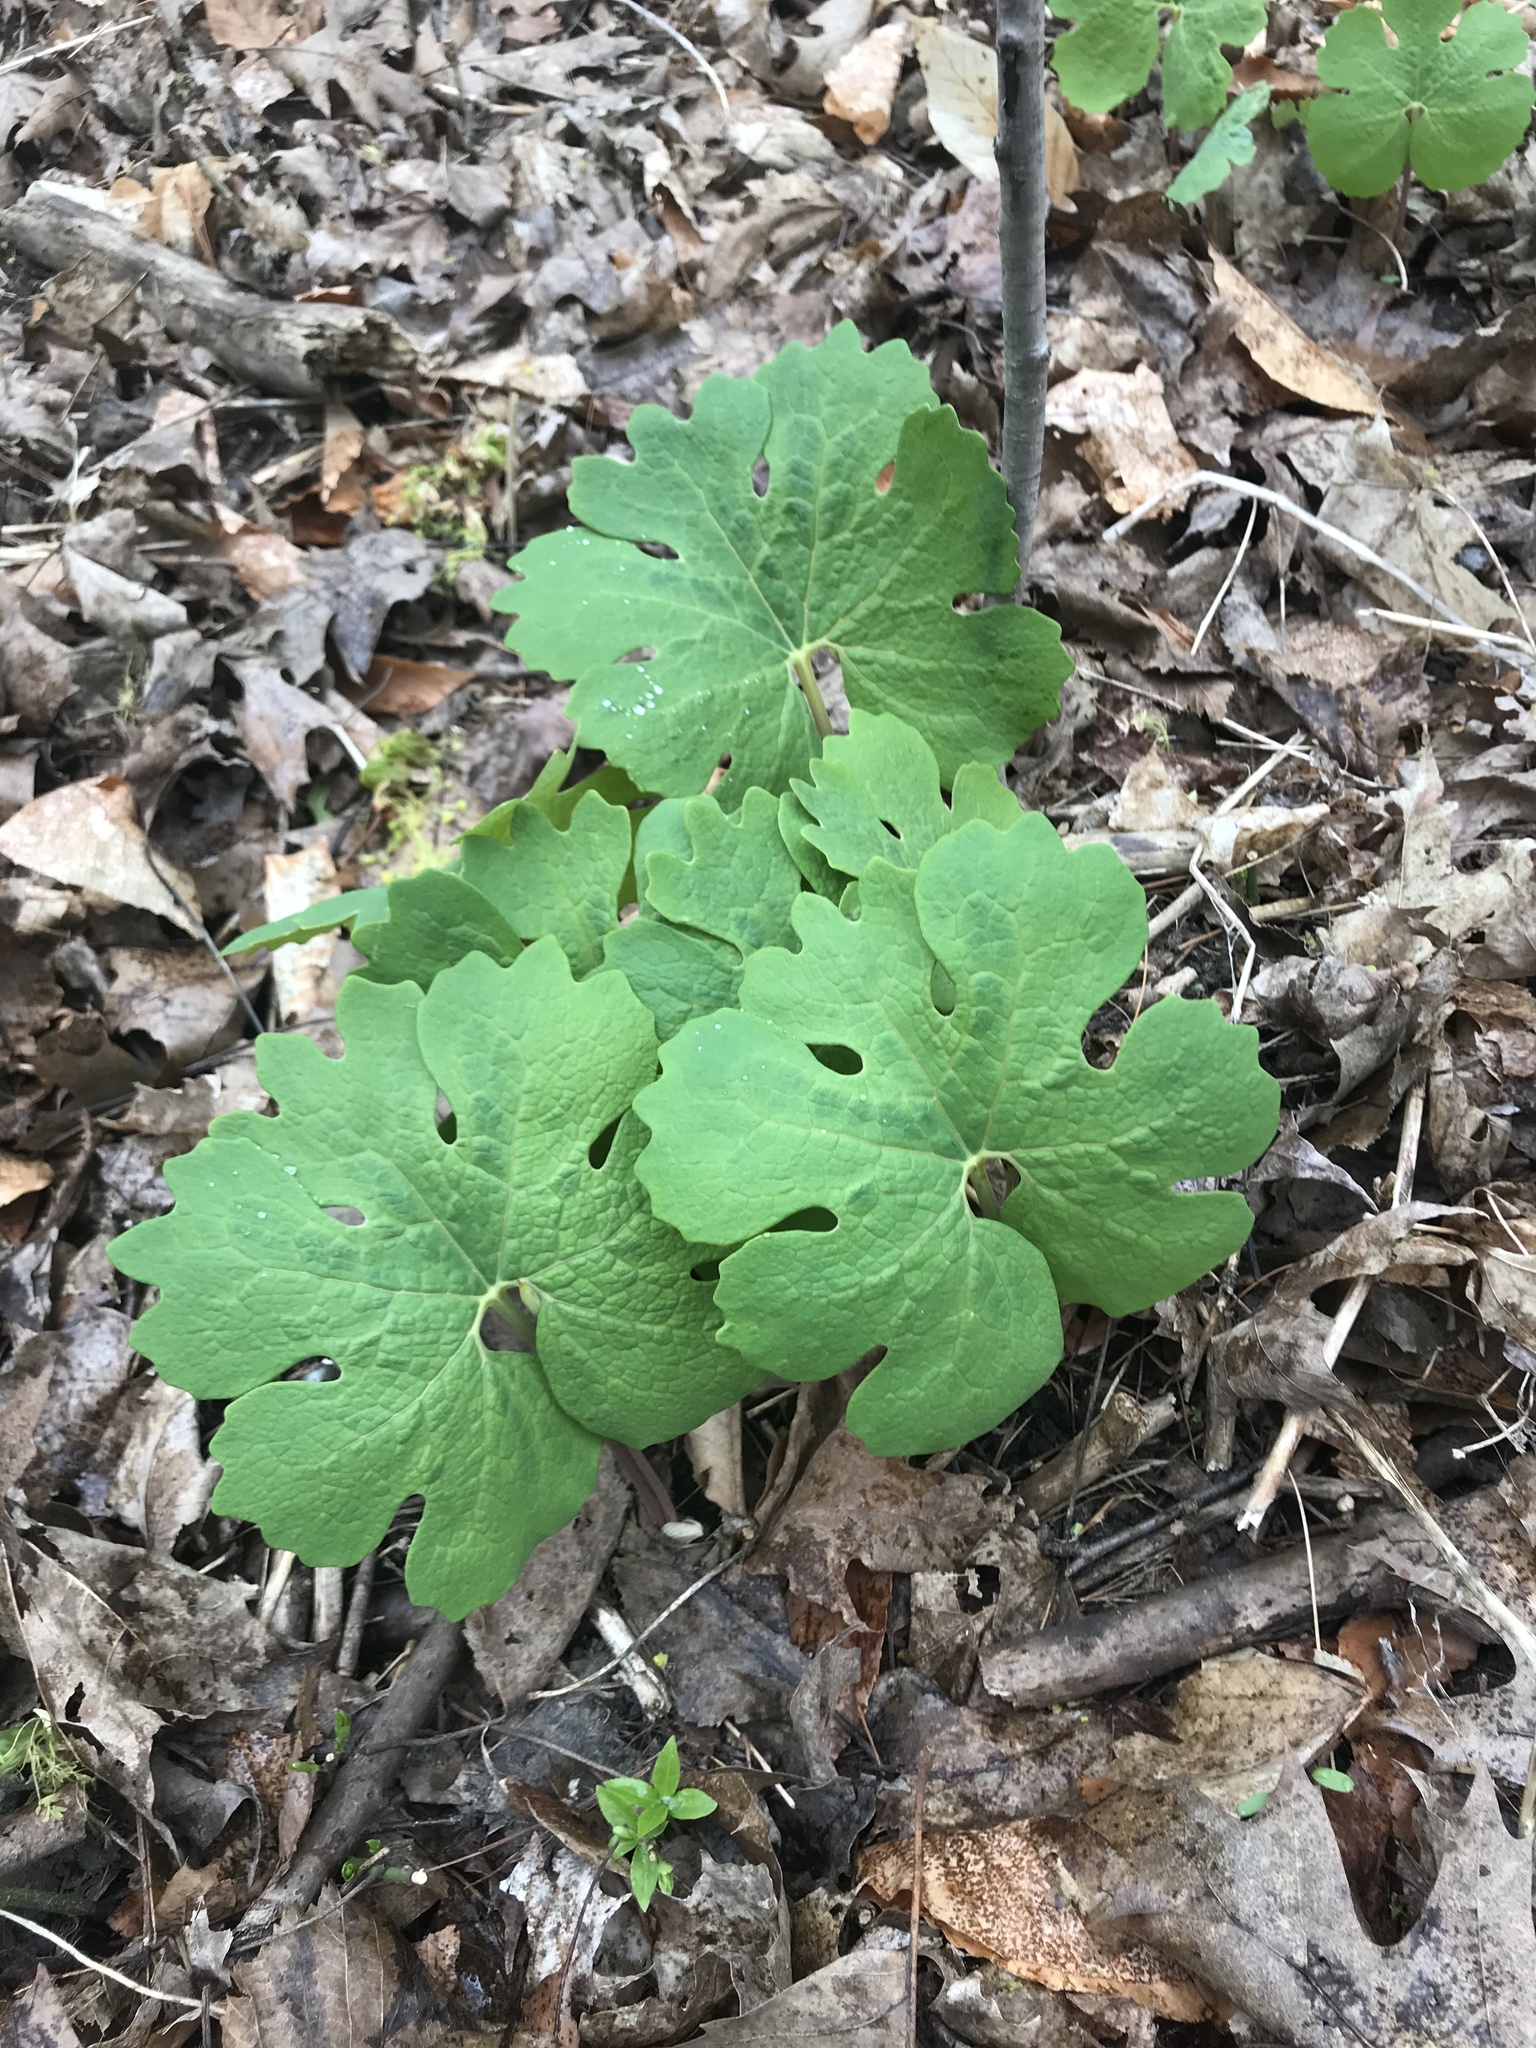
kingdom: Plantae
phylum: Tracheophyta
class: Magnoliopsida
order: Ranunculales
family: Papaveraceae
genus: Sanguinaria
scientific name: Sanguinaria canadensis
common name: Bloodroot
